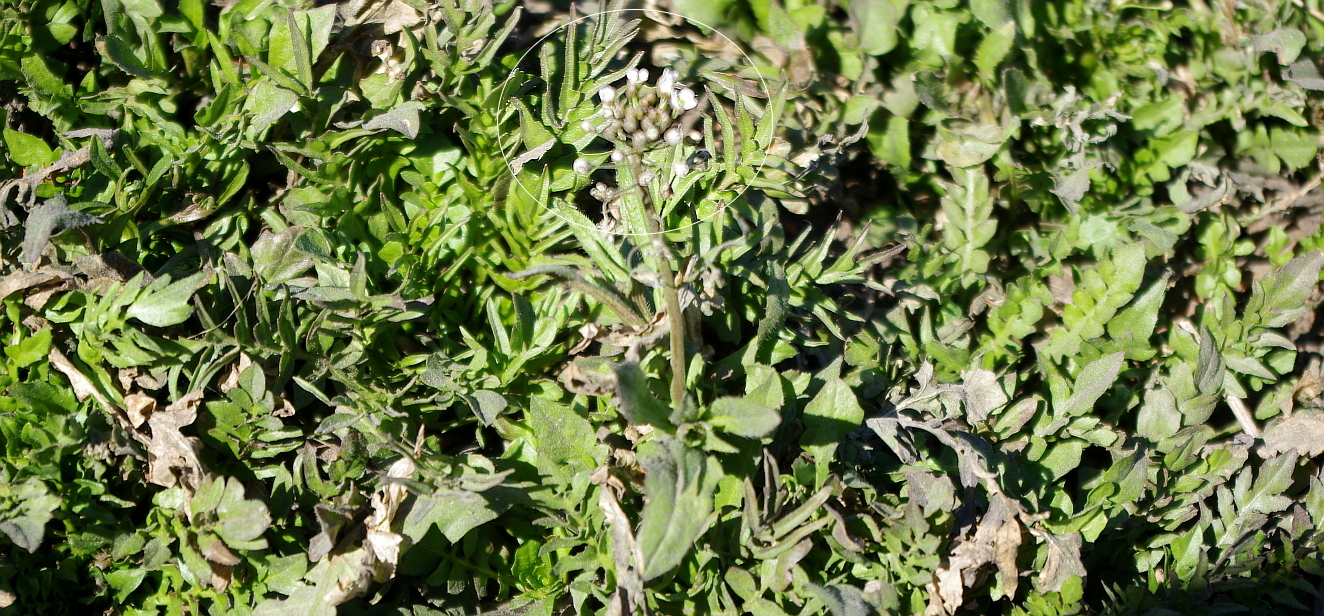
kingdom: Plantae
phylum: Tracheophyta
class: Magnoliopsida
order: Brassicales
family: Brassicaceae
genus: Capsella
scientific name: Capsella bursa-pastoris
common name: Shepherd's purse
